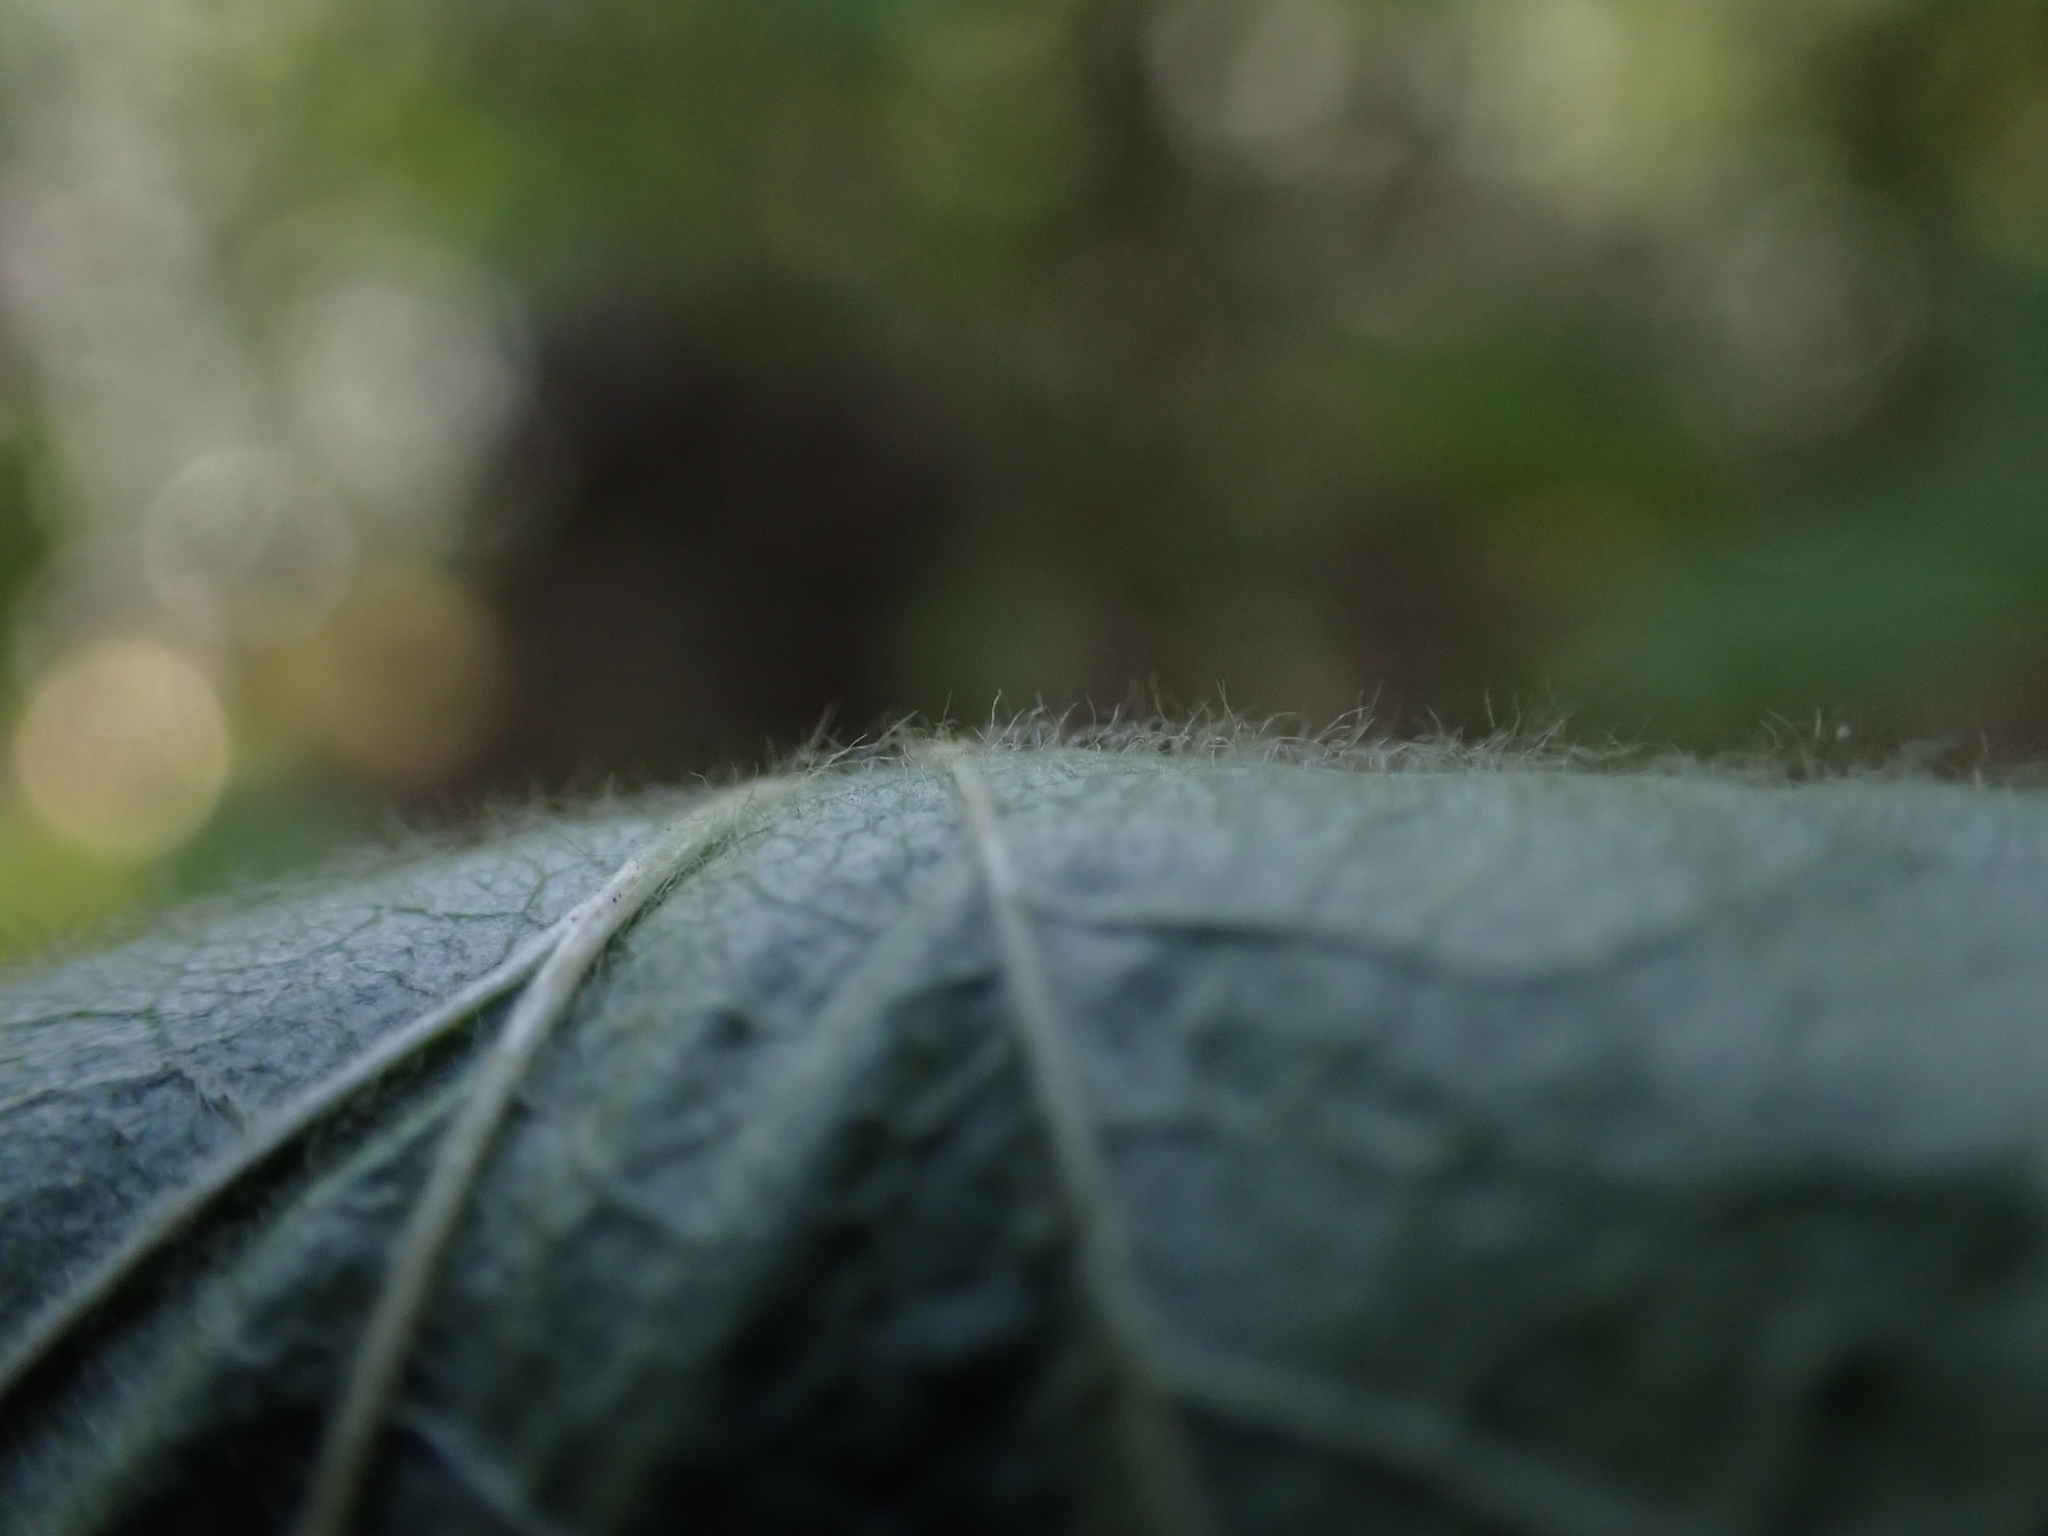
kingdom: Plantae
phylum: Tracheophyta
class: Magnoliopsida
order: Rosales
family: Rosaceae
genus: Holodiscus
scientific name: Holodiscus discolor
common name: Oceanspray
